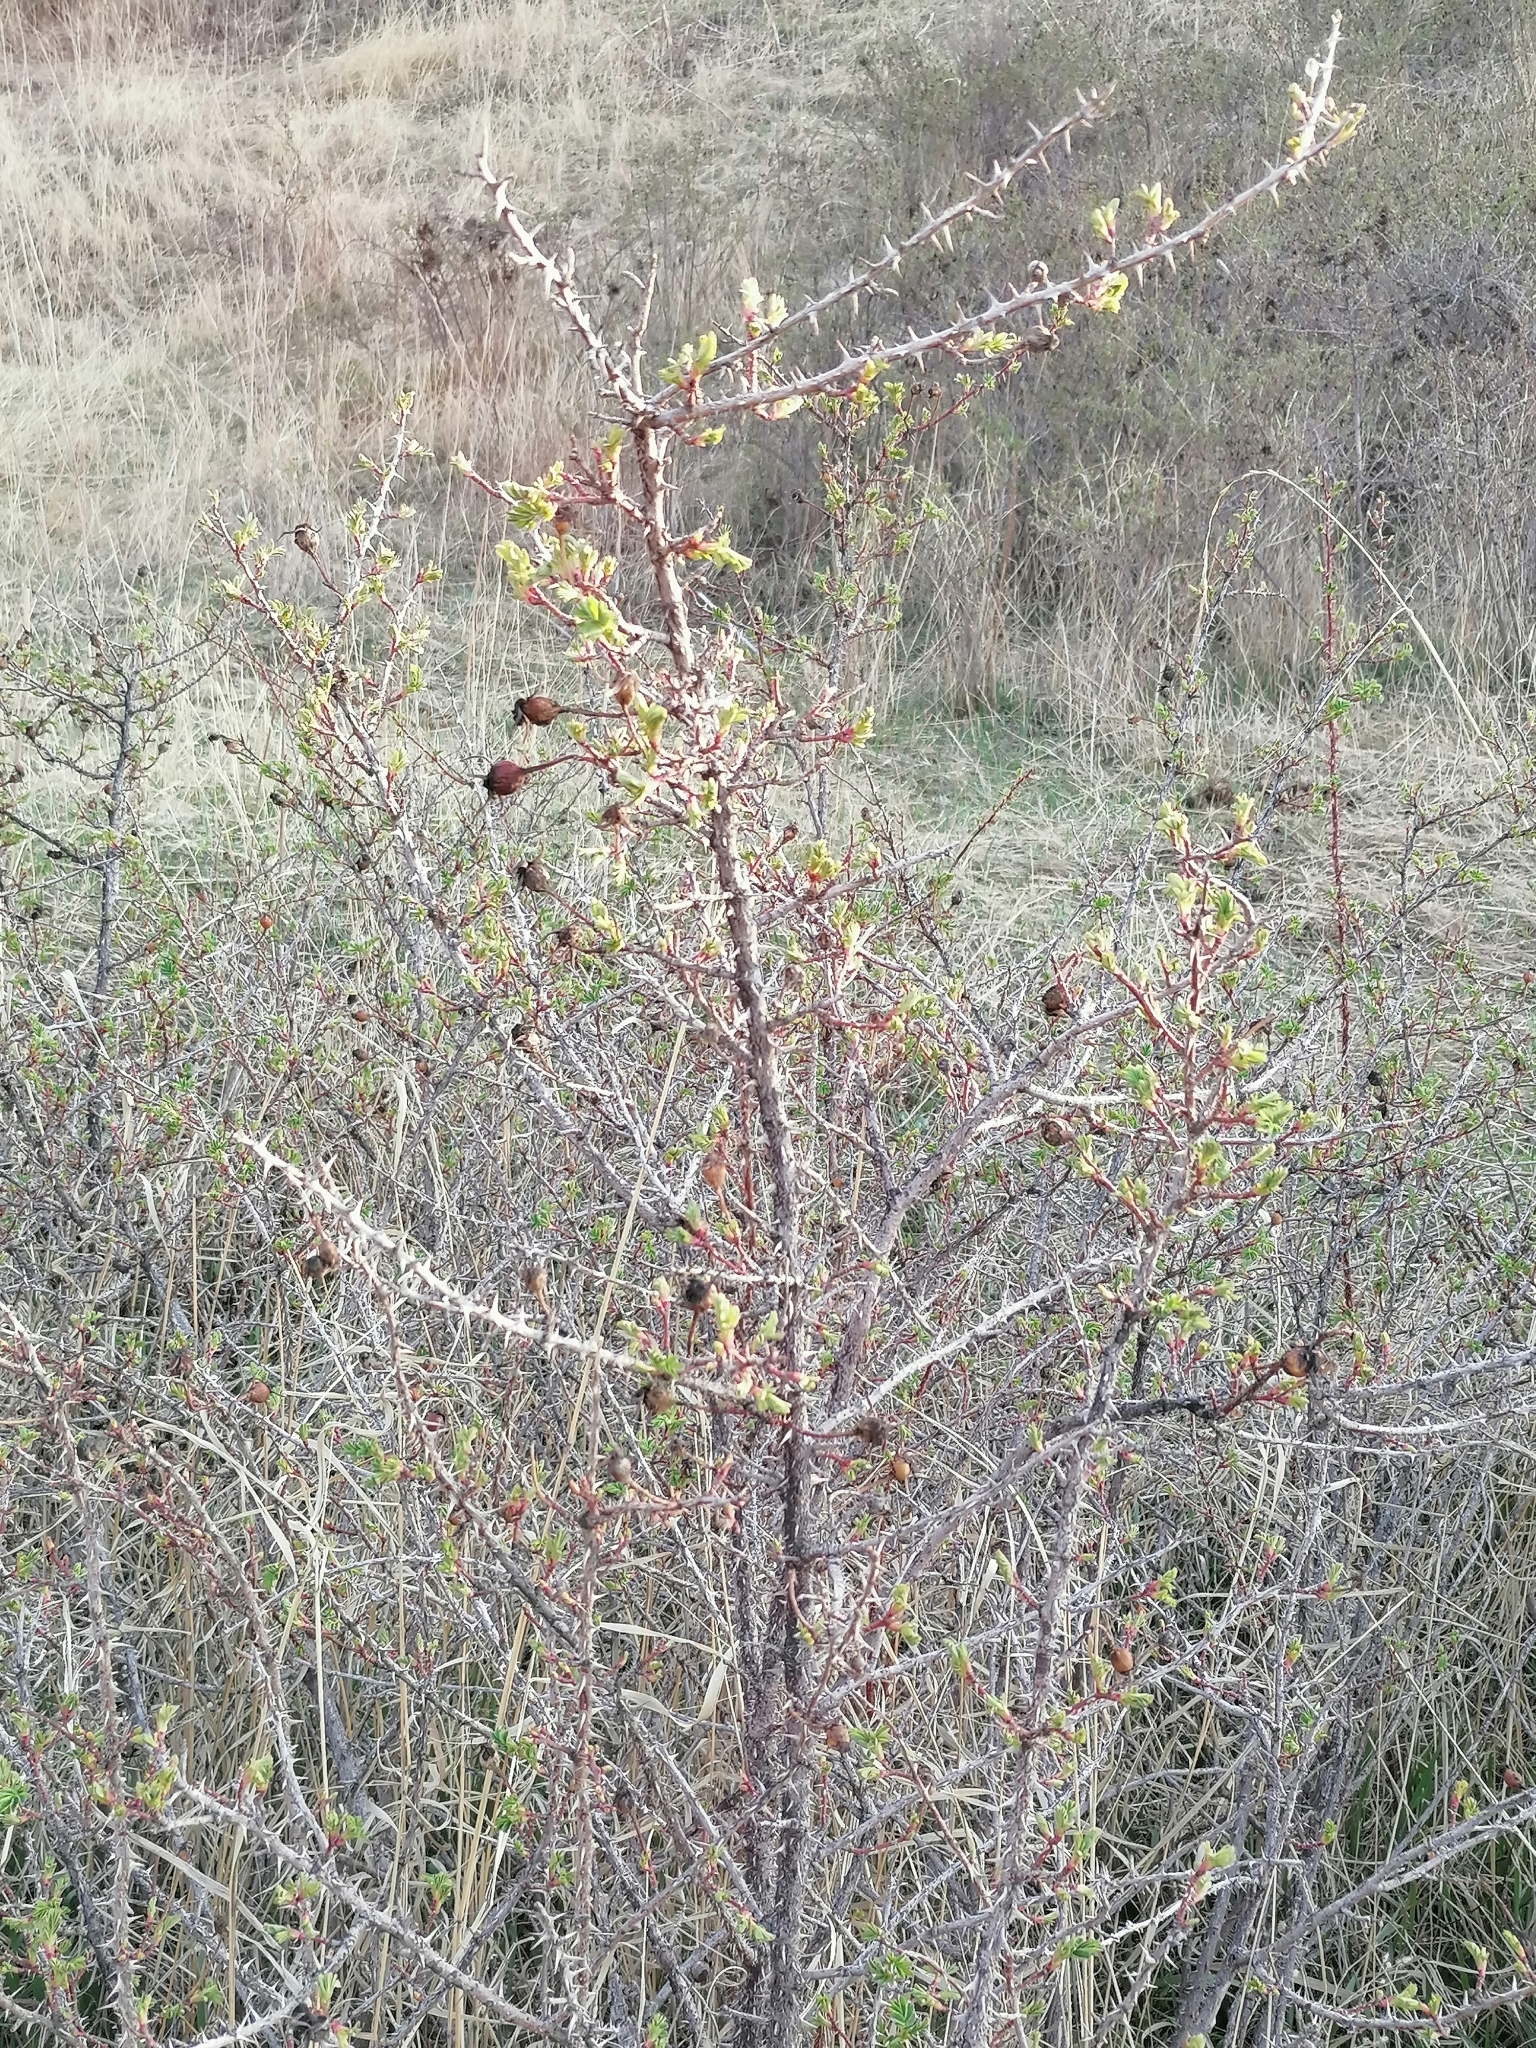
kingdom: Plantae
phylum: Tracheophyta
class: Magnoliopsida
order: Rosales
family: Rosaceae
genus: Rosa
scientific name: Rosa platyacantha
